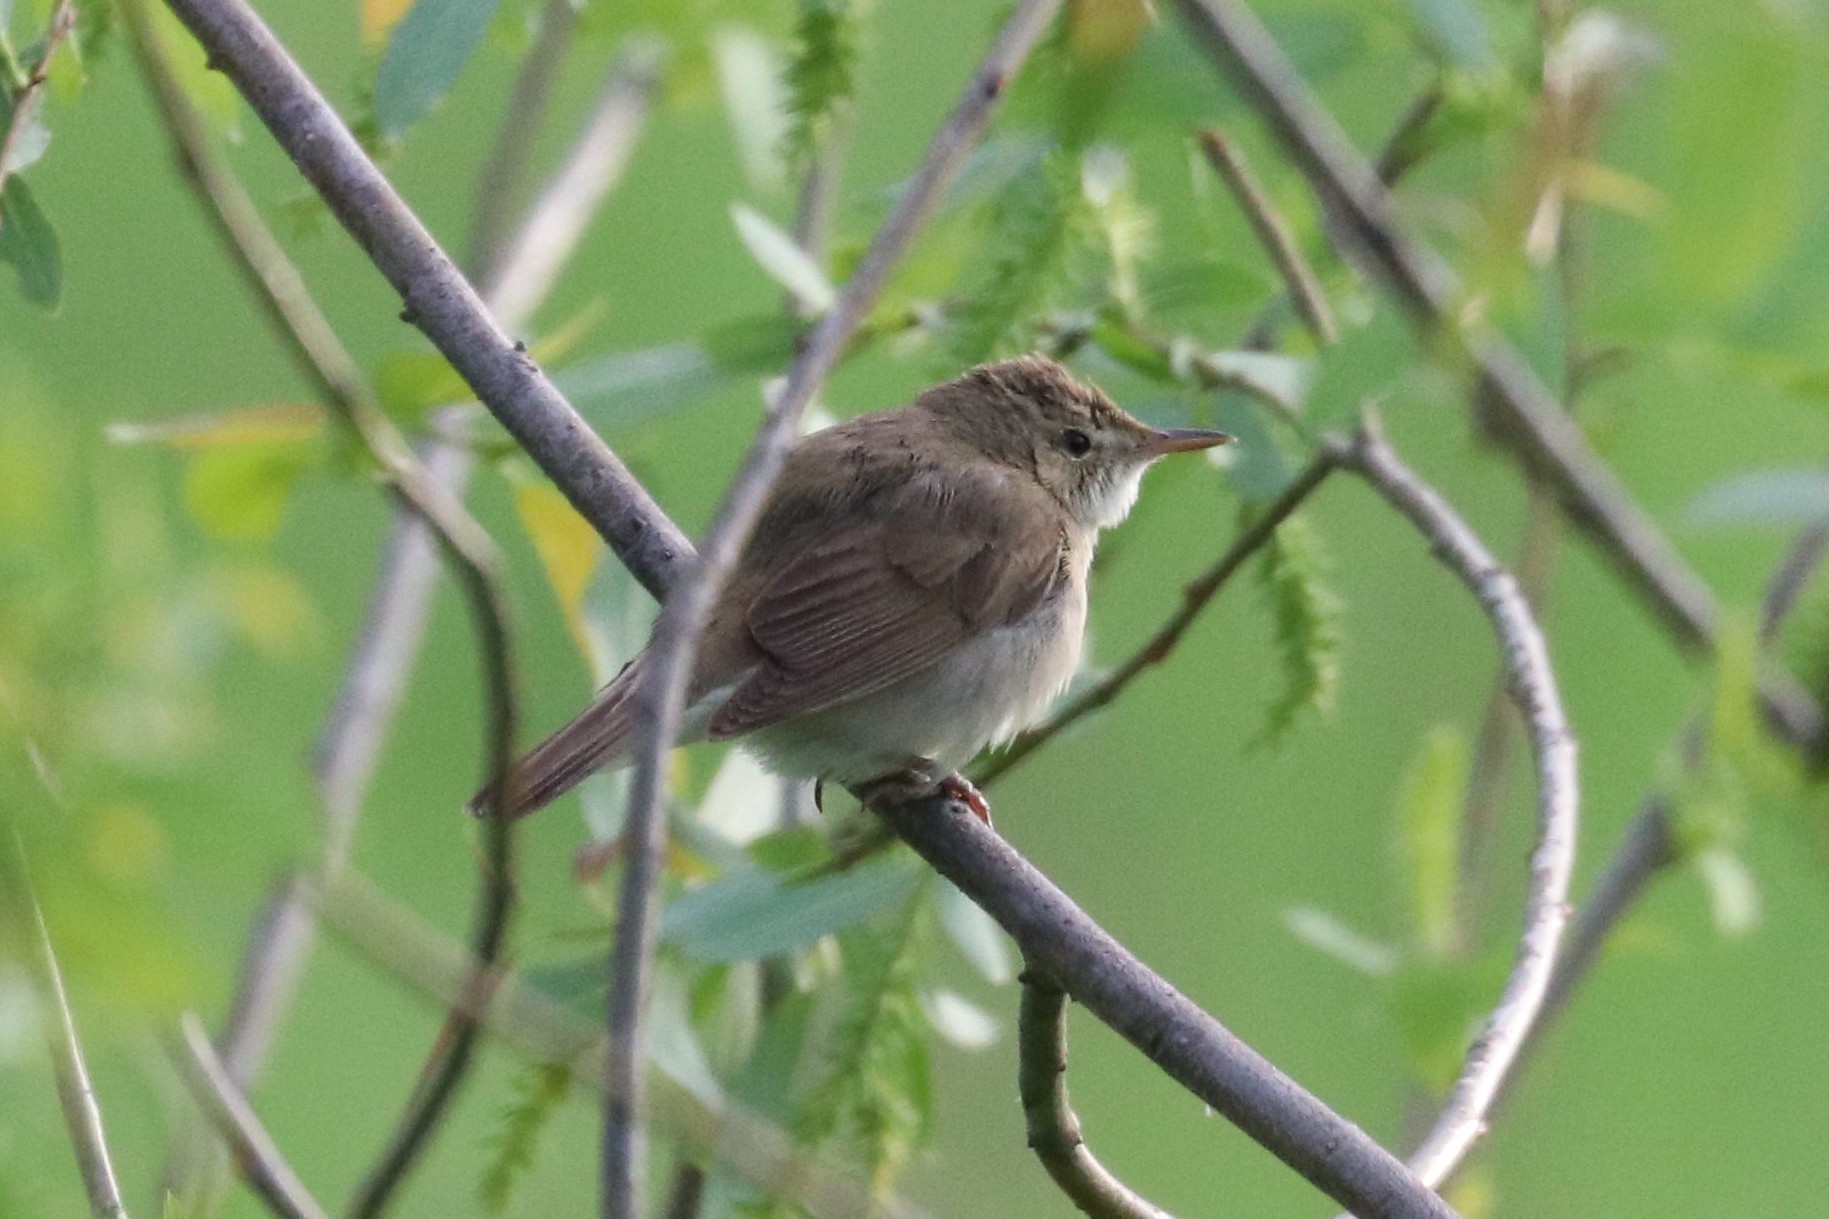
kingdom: Animalia
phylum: Chordata
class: Aves
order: Passeriformes
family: Acrocephalidae
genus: Acrocephalus
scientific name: Acrocephalus dumetorum
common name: Blyth's reed warbler
